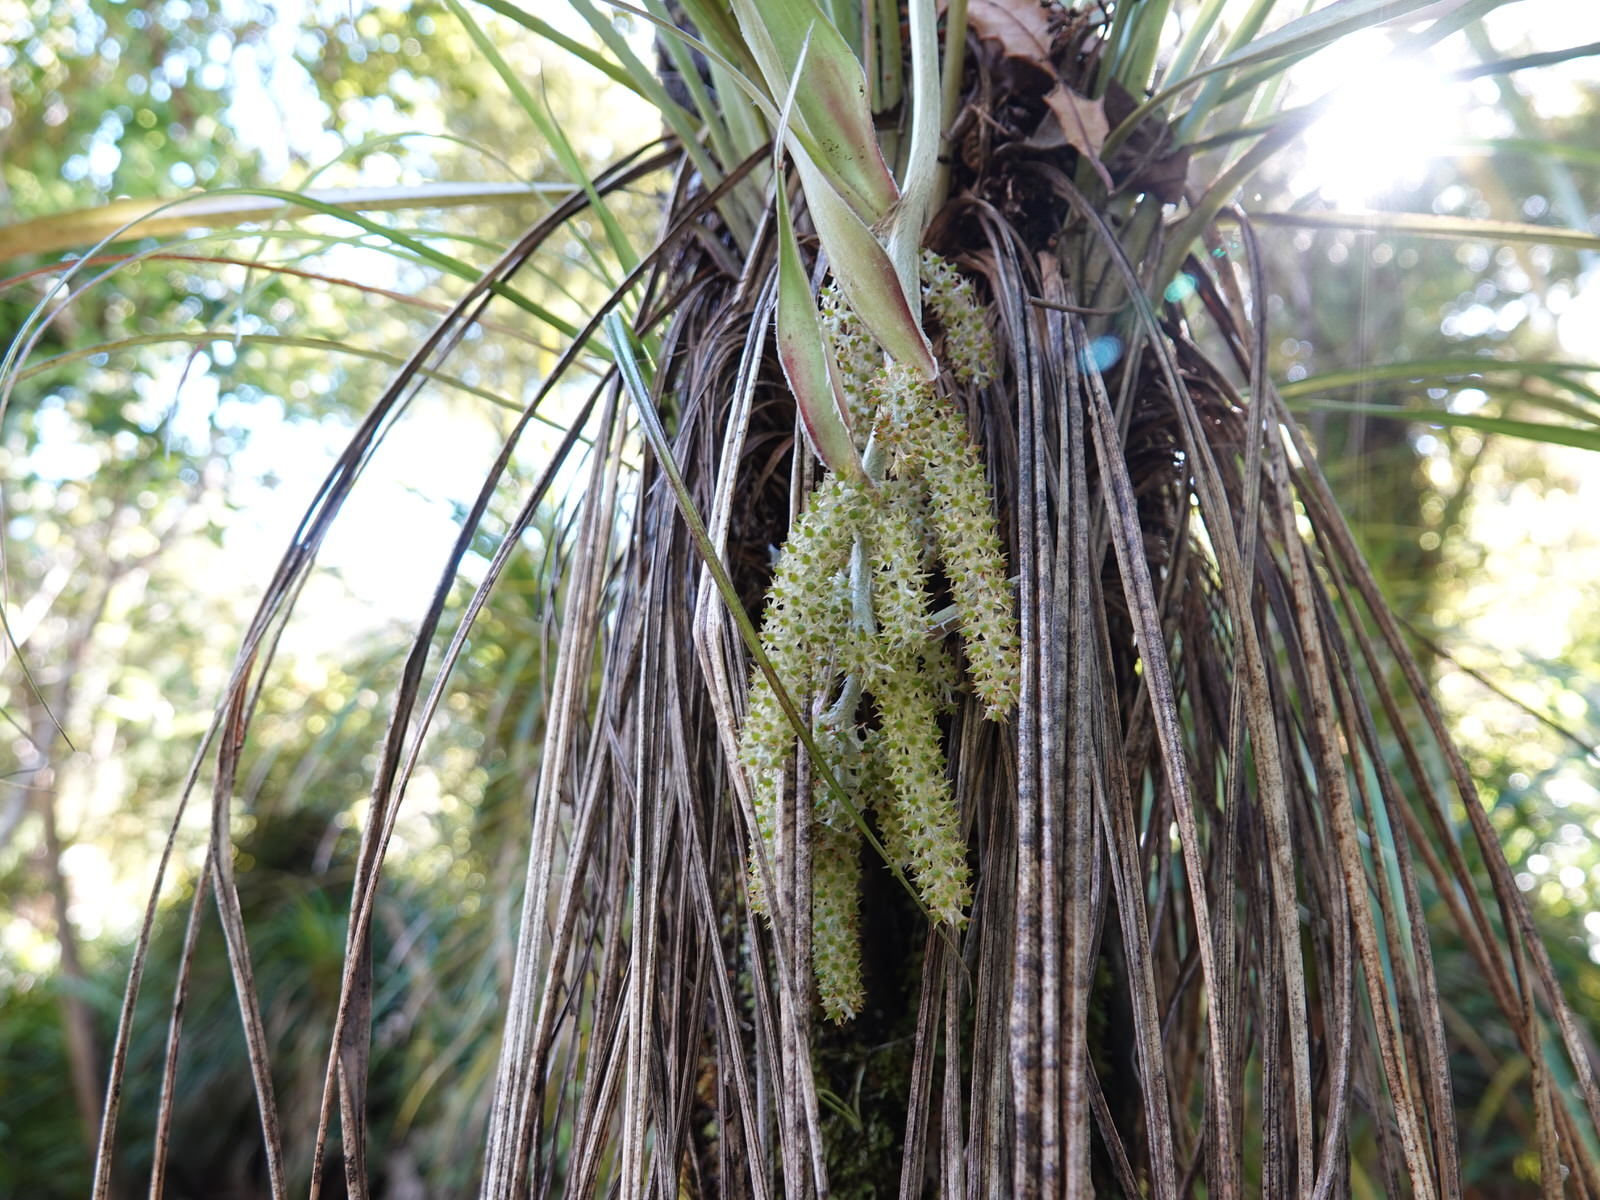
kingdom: Plantae
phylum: Tracheophyta
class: Liliopsida
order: Asparagales
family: Asteliaceae
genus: Astelia
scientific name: Astelia solandri
